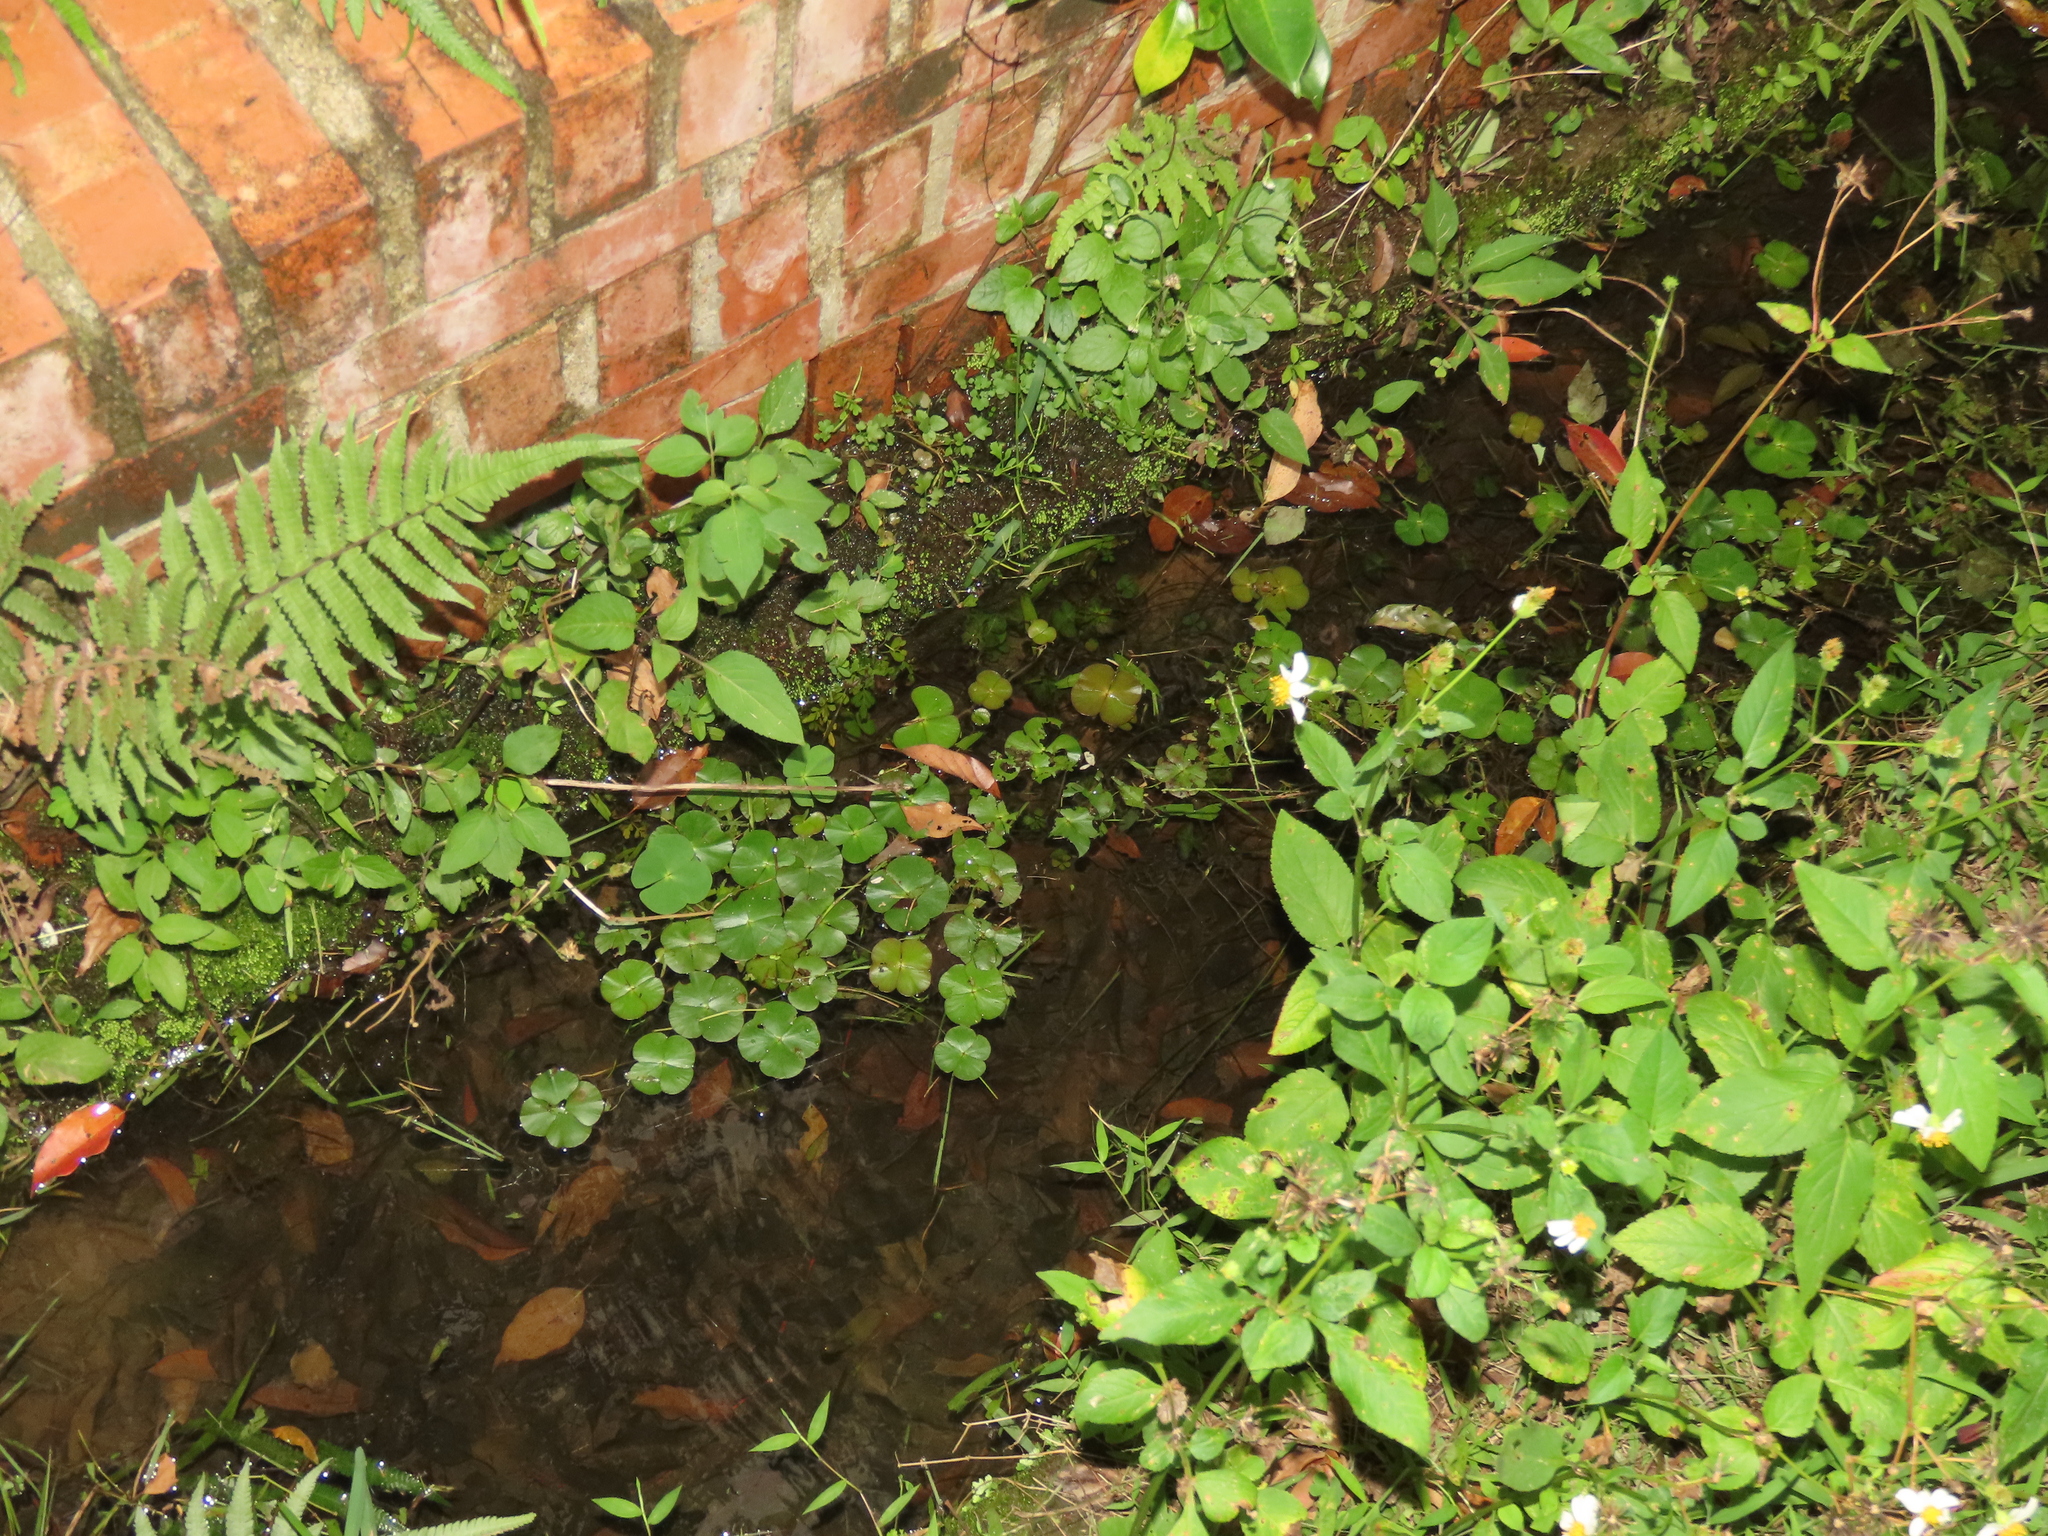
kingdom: Plantae
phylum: Tracheophyta
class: Polypodiopsida
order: Salviniales
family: Marsileaceae
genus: Marsilea
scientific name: Marsilea minuta
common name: Dwarf waterclover
